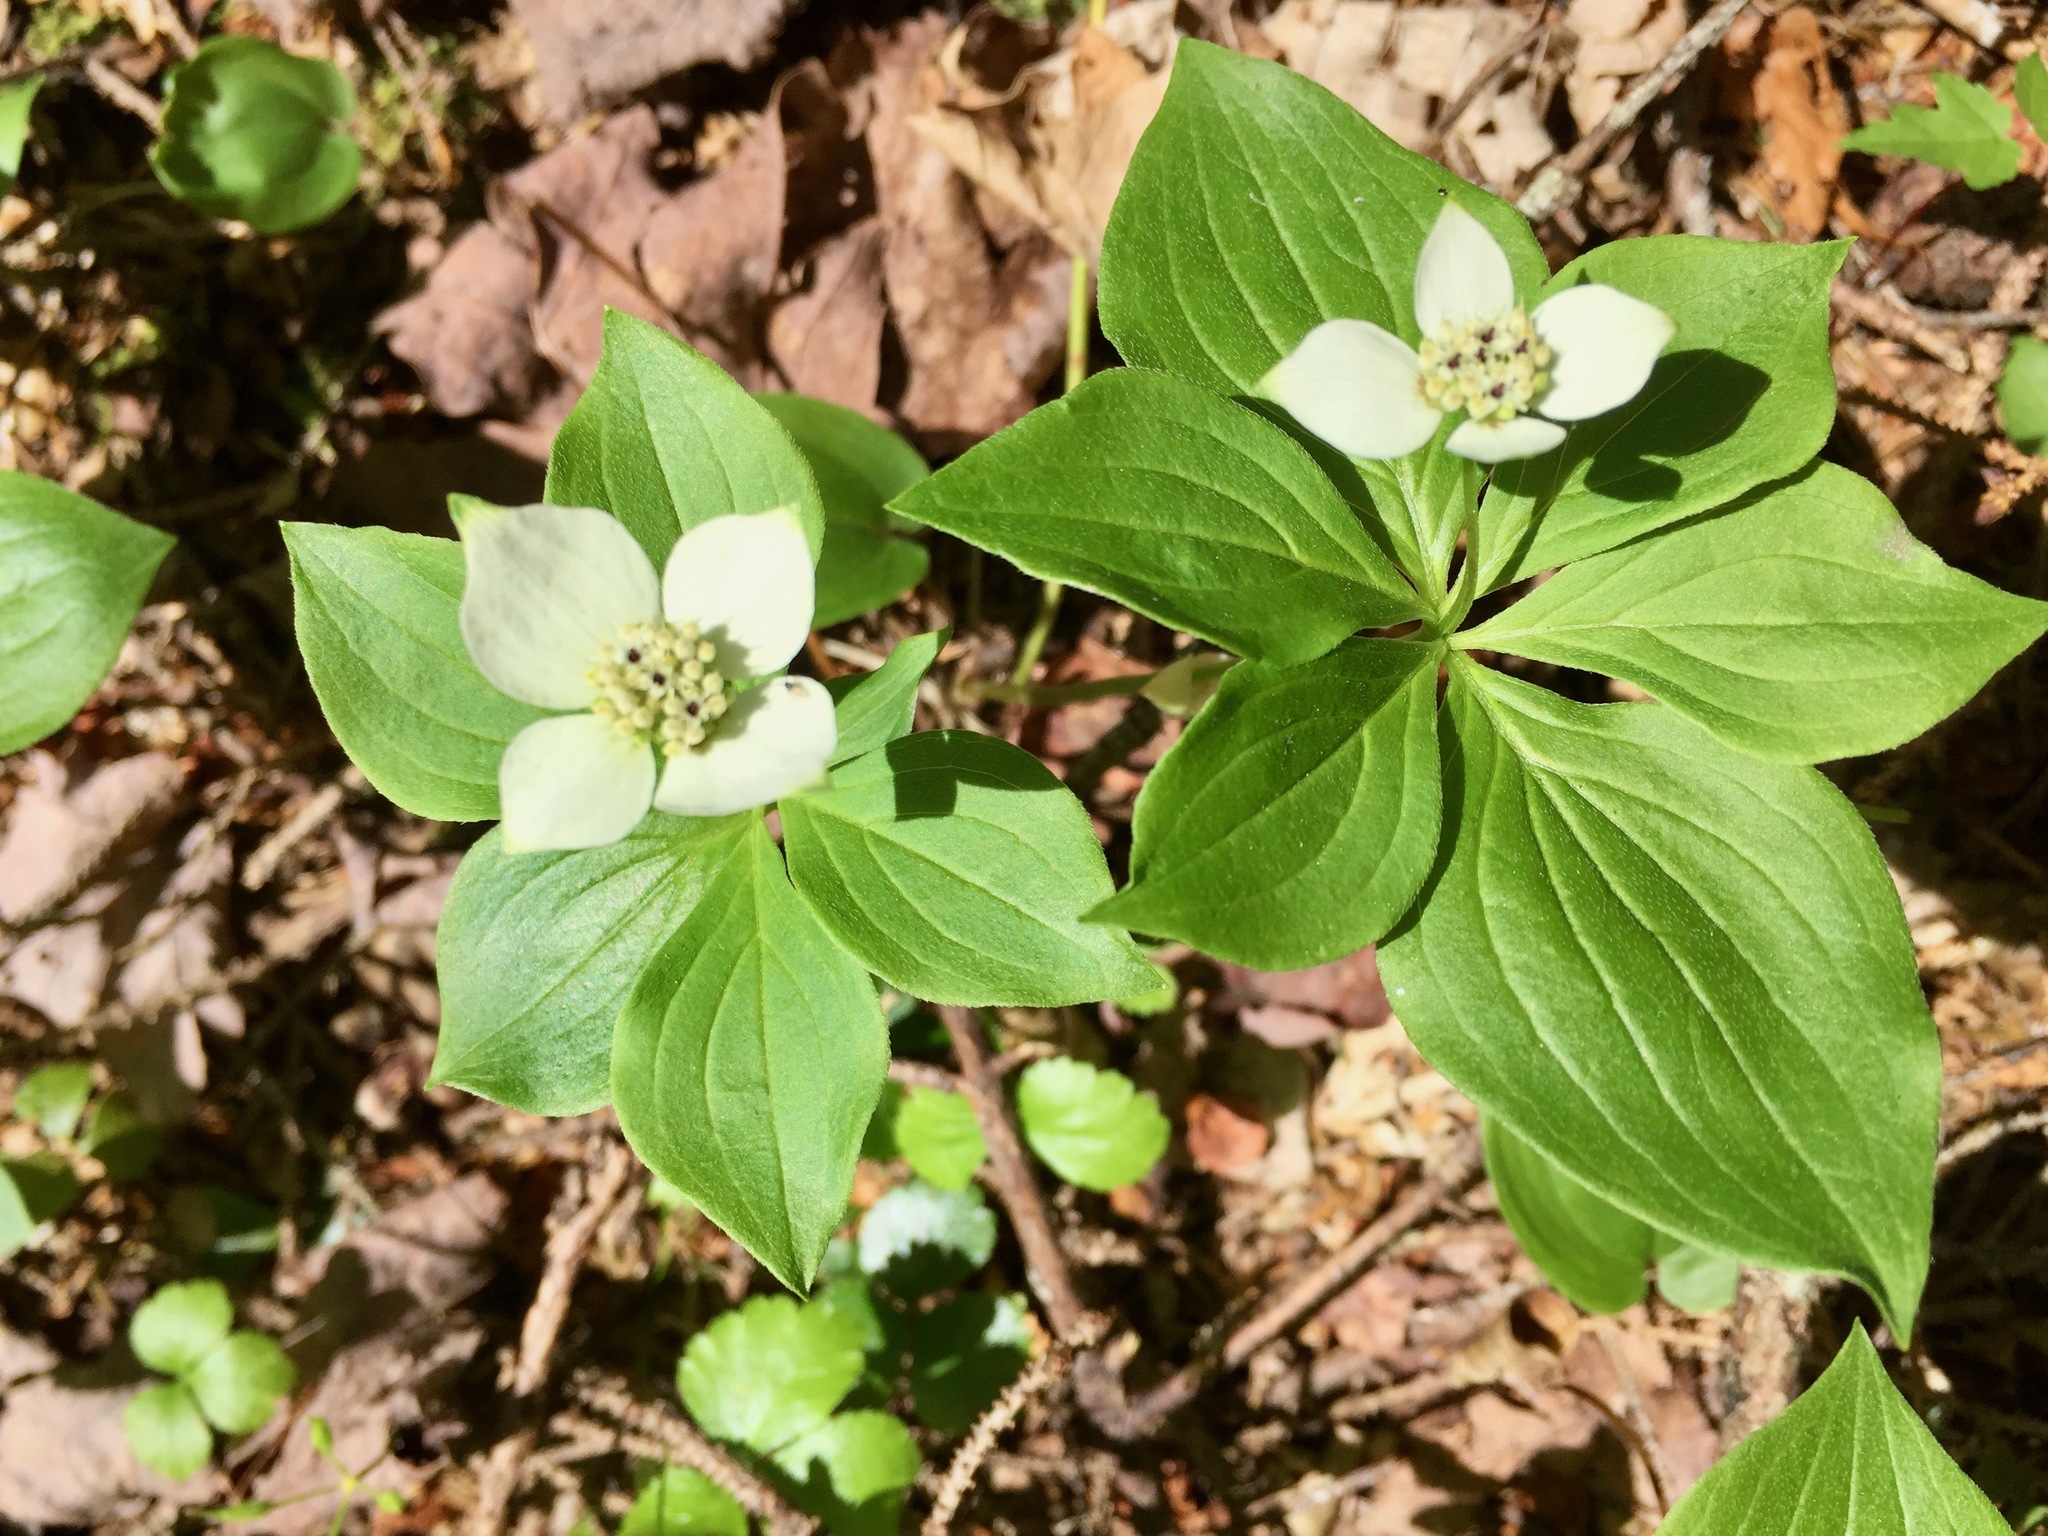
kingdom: Plantae
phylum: Tracheophyta
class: Magnoliopsida
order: Cornales
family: Cornaceae
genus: Cornus
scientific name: Cornus canadensis
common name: Creeping dogwood
